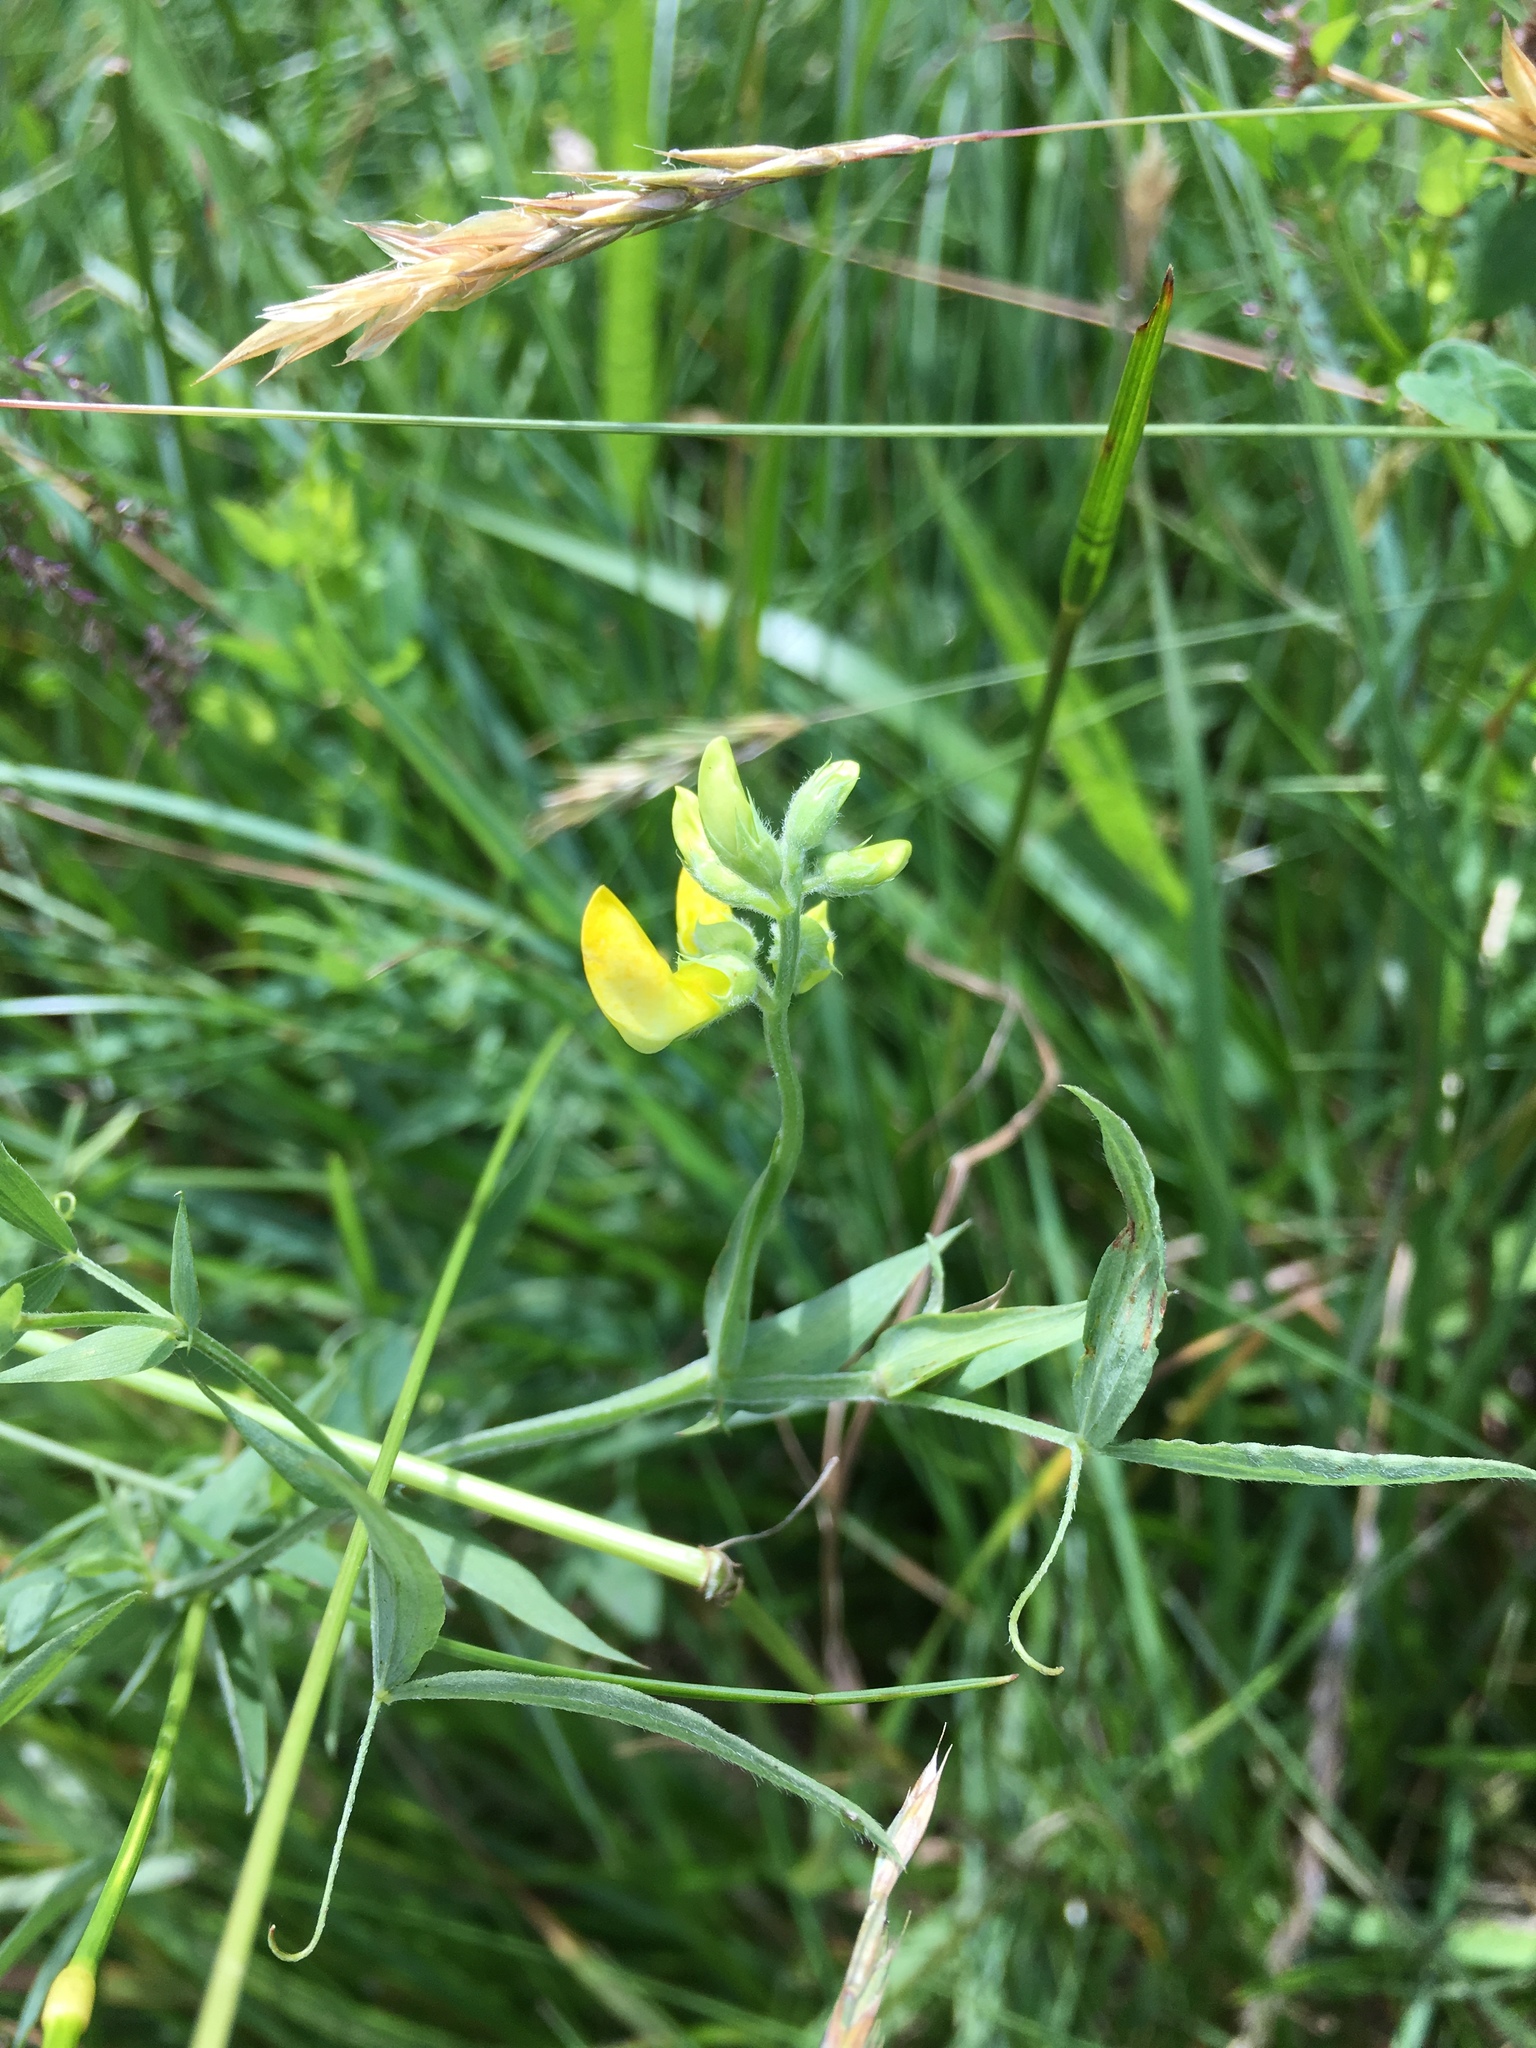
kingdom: Plantae
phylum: Tracheophyta
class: Magnoliopsida
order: Fabales
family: Fabaceae
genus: Lathyrus
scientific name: Lathyrus pratensis
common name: Meadow vetchling
